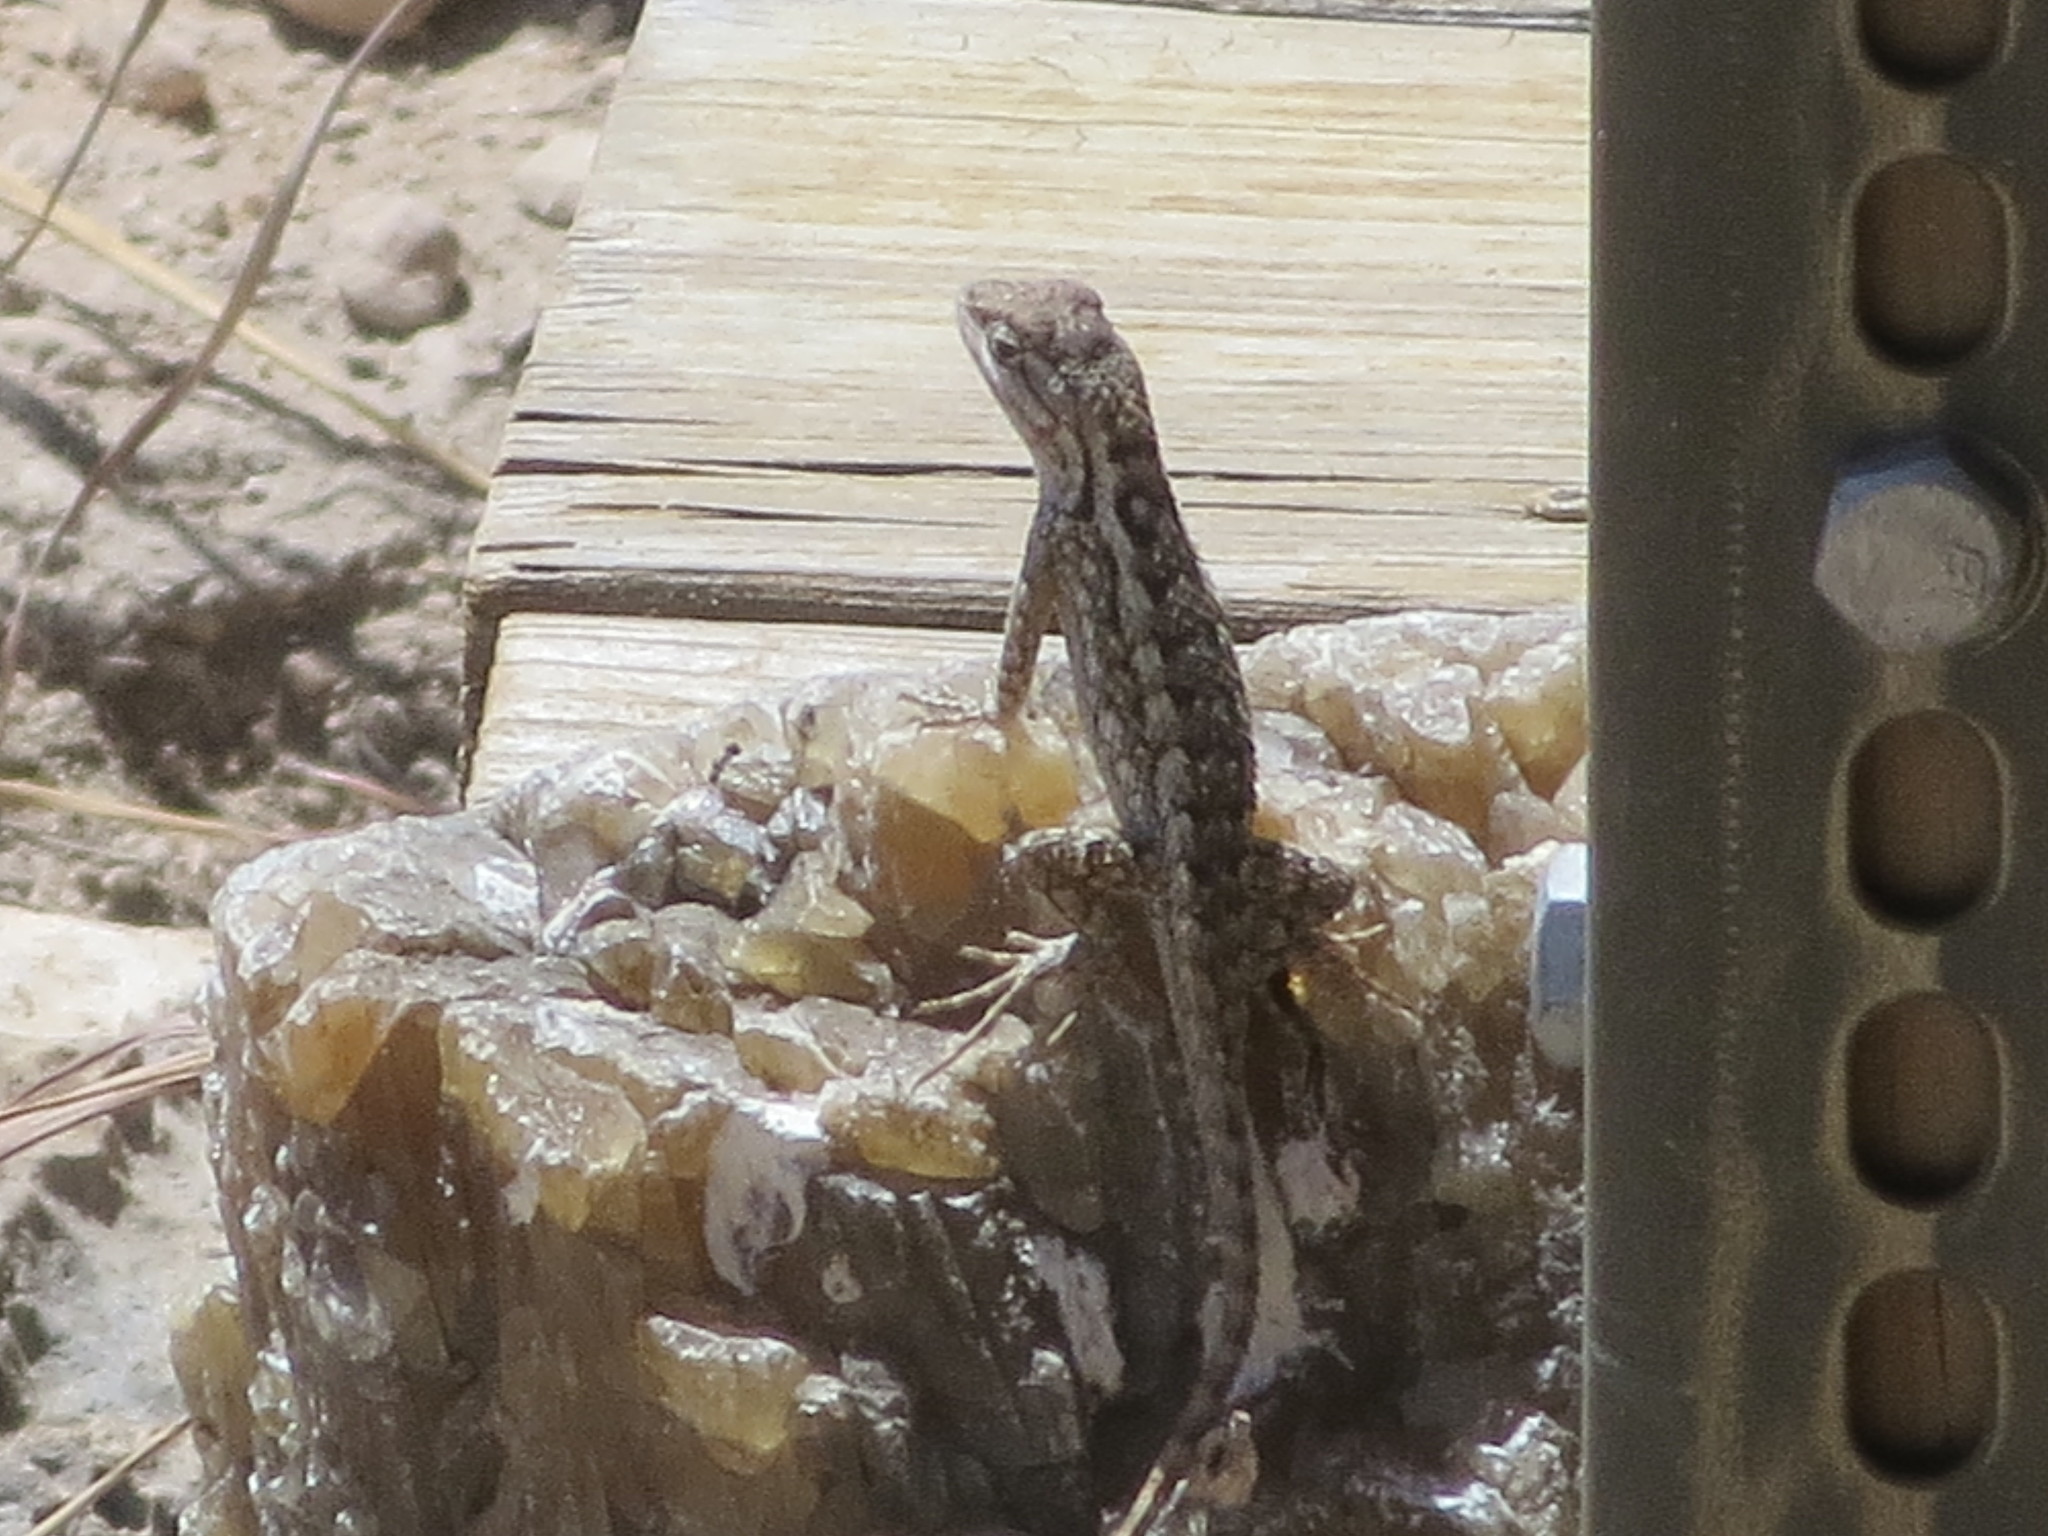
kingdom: Animalia
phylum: Chordata
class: Squamata
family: Phrynosomatidae
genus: Sceloporus
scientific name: Sceloporus olivaceus
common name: Texas spiny lizard
